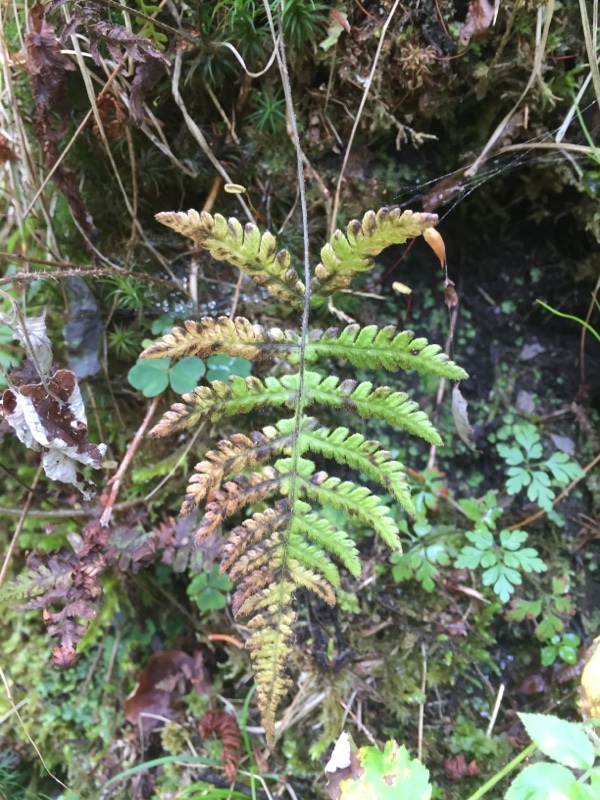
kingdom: Plantae
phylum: Tracheophyta
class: Polypodiopsida
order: Polypodiales
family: Thelypteridaceae
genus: Phegopteris
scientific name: Phegopteris connectilis
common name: Beech fern
